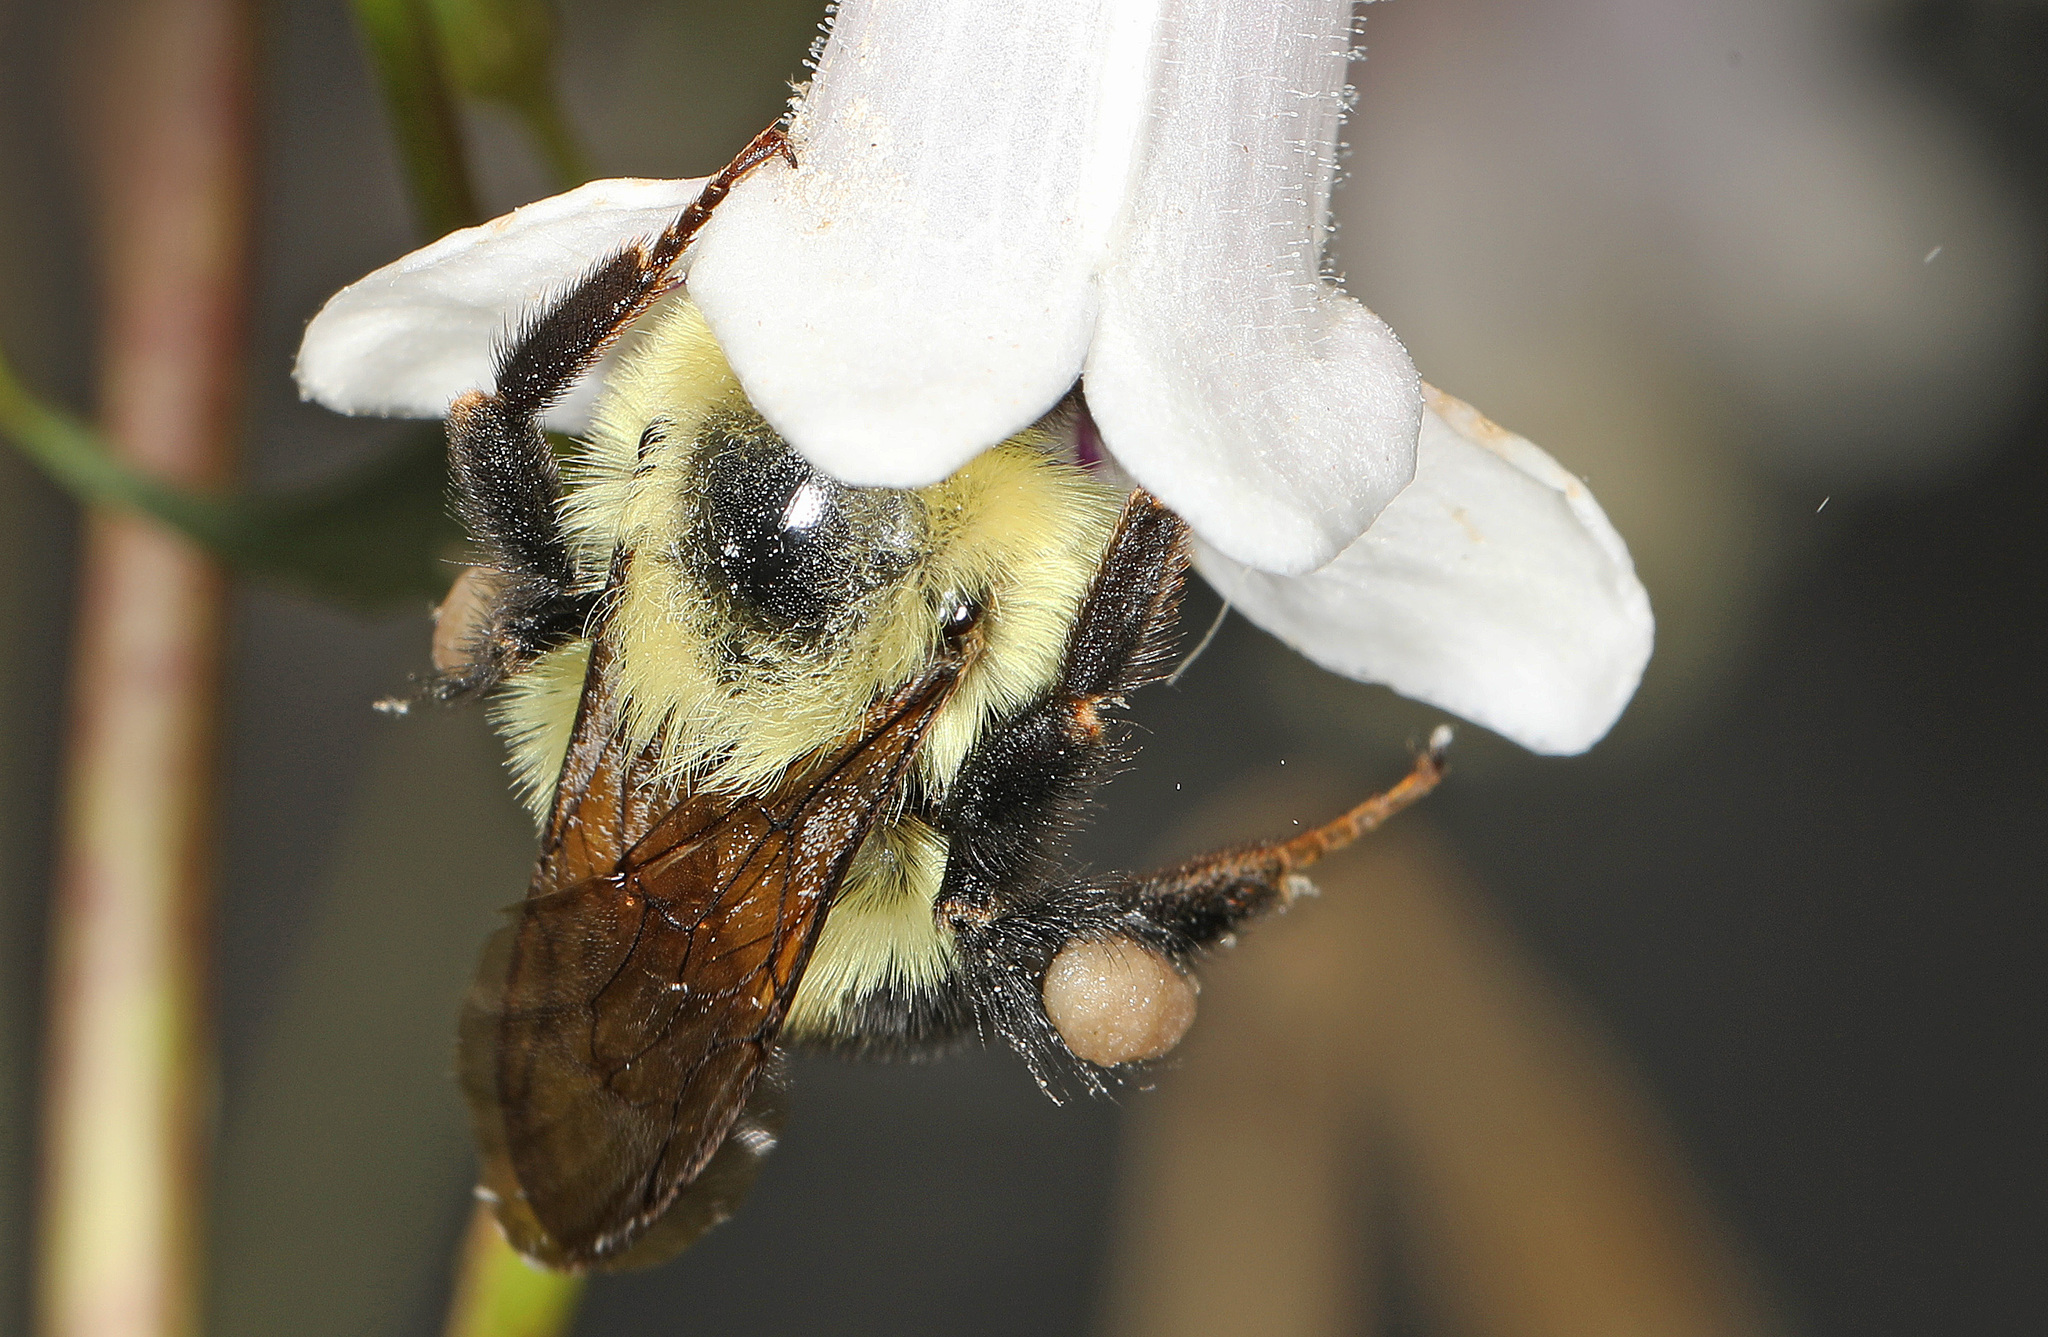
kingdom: Animalia
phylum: Arthropoda
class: Insecta
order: Hymenoptera
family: Apidae
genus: Bombus
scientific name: Bombus bimaculatus
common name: Two-spotted bumble bee
